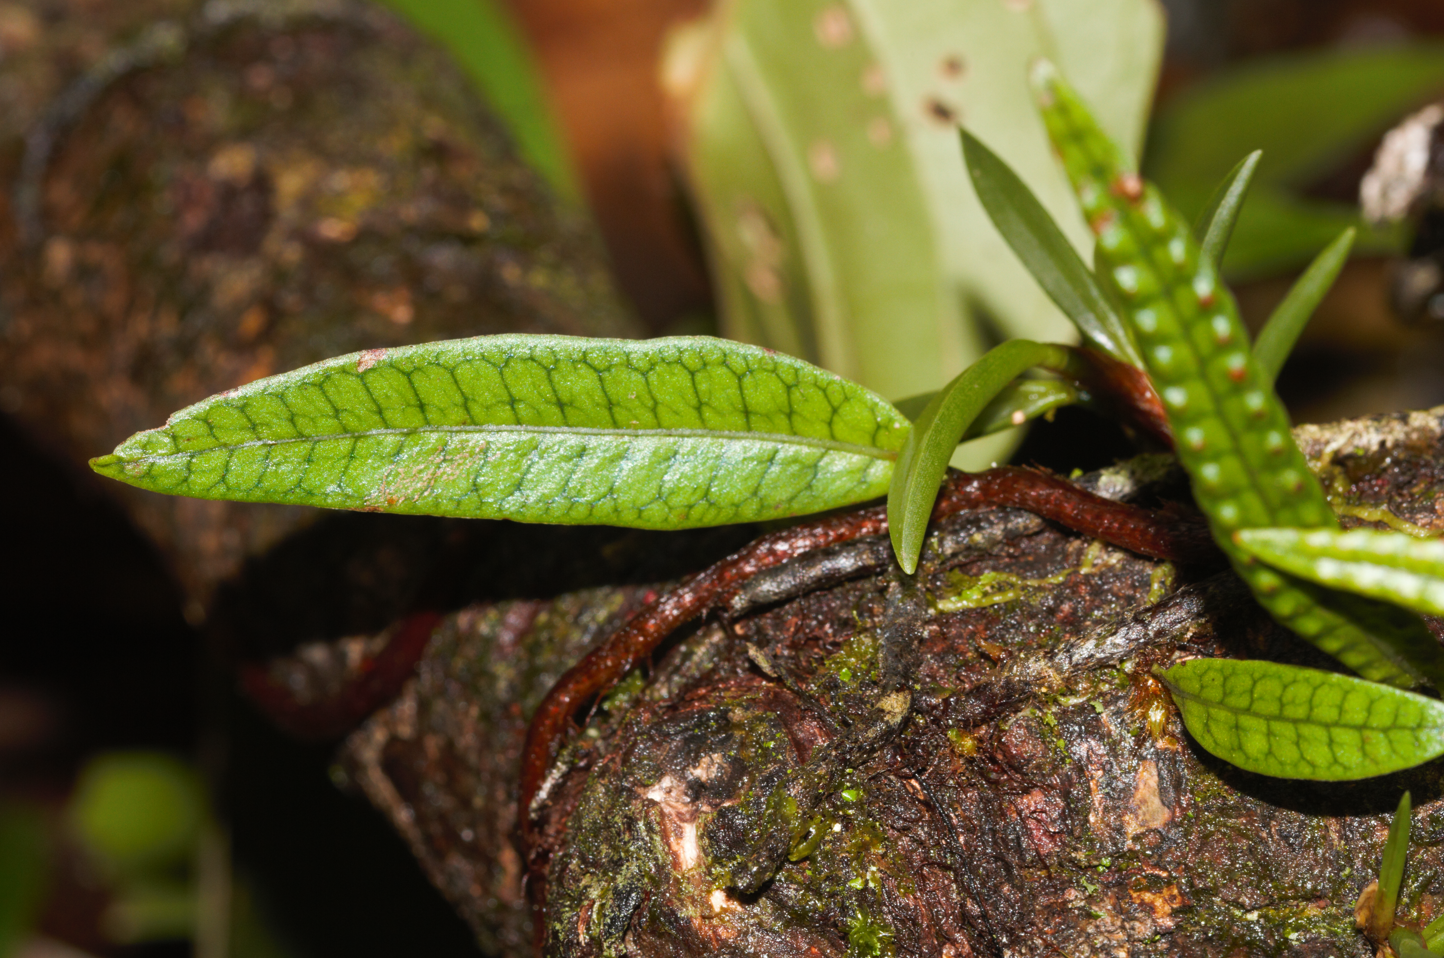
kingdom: Plantae
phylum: Tracheophyta
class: Polypodiopsida
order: Polypodiales
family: Polypodiaceae
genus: Microgramma
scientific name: Microgramma lycopodioides
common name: Bastard catclaw
